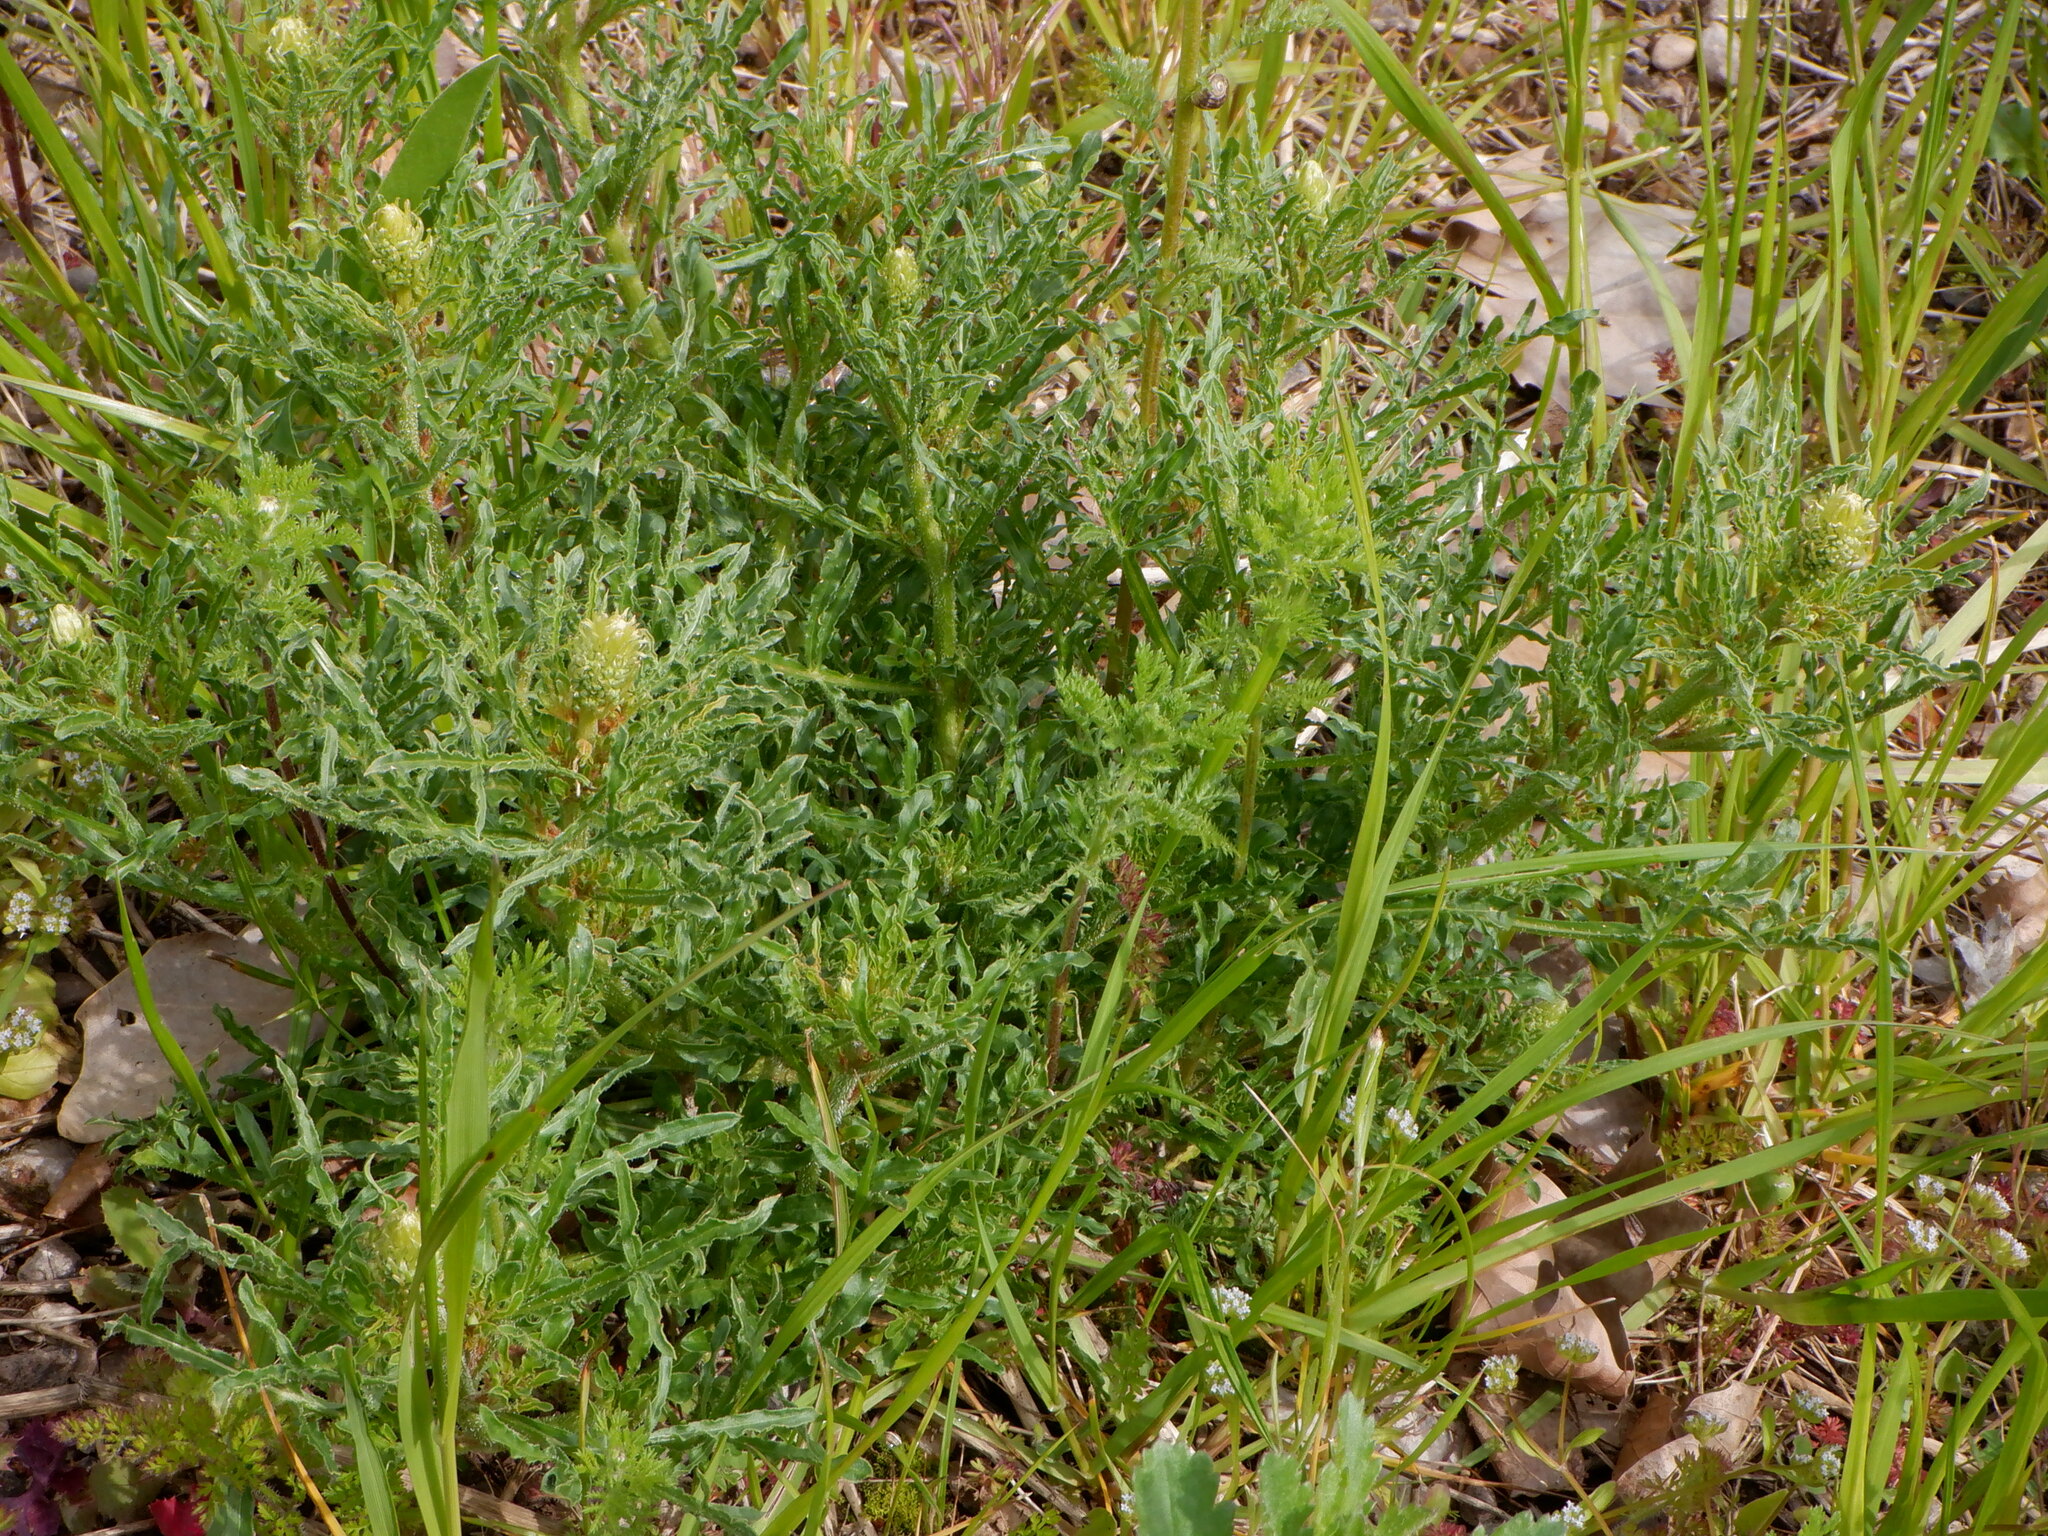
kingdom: Plantae
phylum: Tracheophyta
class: Magnoliopsida
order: Brassicales
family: Resedaceae
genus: Reseda
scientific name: Reseda lutea
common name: Wild mignonette
